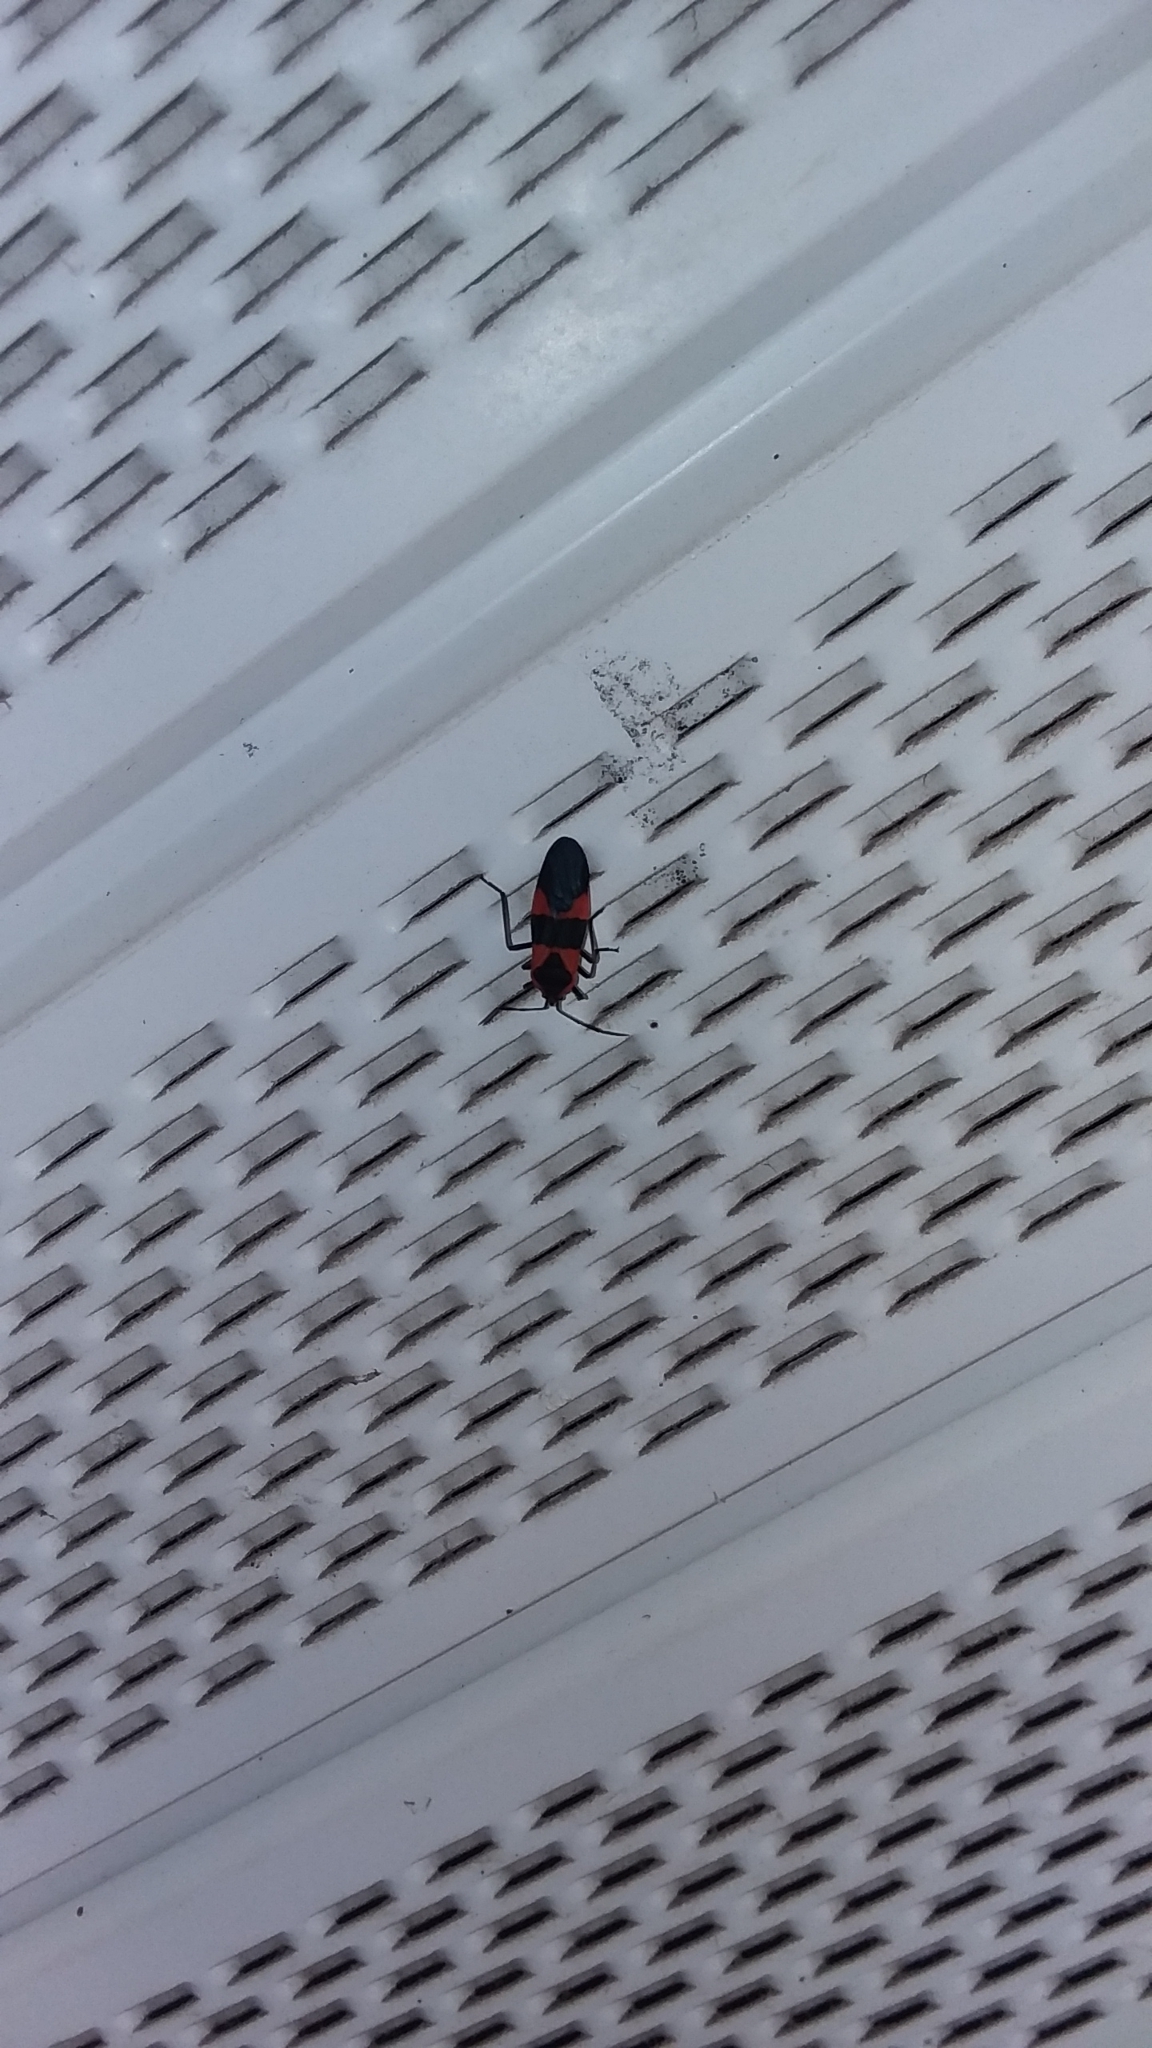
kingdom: Animalia
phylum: Arthropoda
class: Insecta
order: Hemiptera
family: Lygaeidae
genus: Oncopeltus
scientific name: Oncopeltus fasciatus
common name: Large milkweed bug
